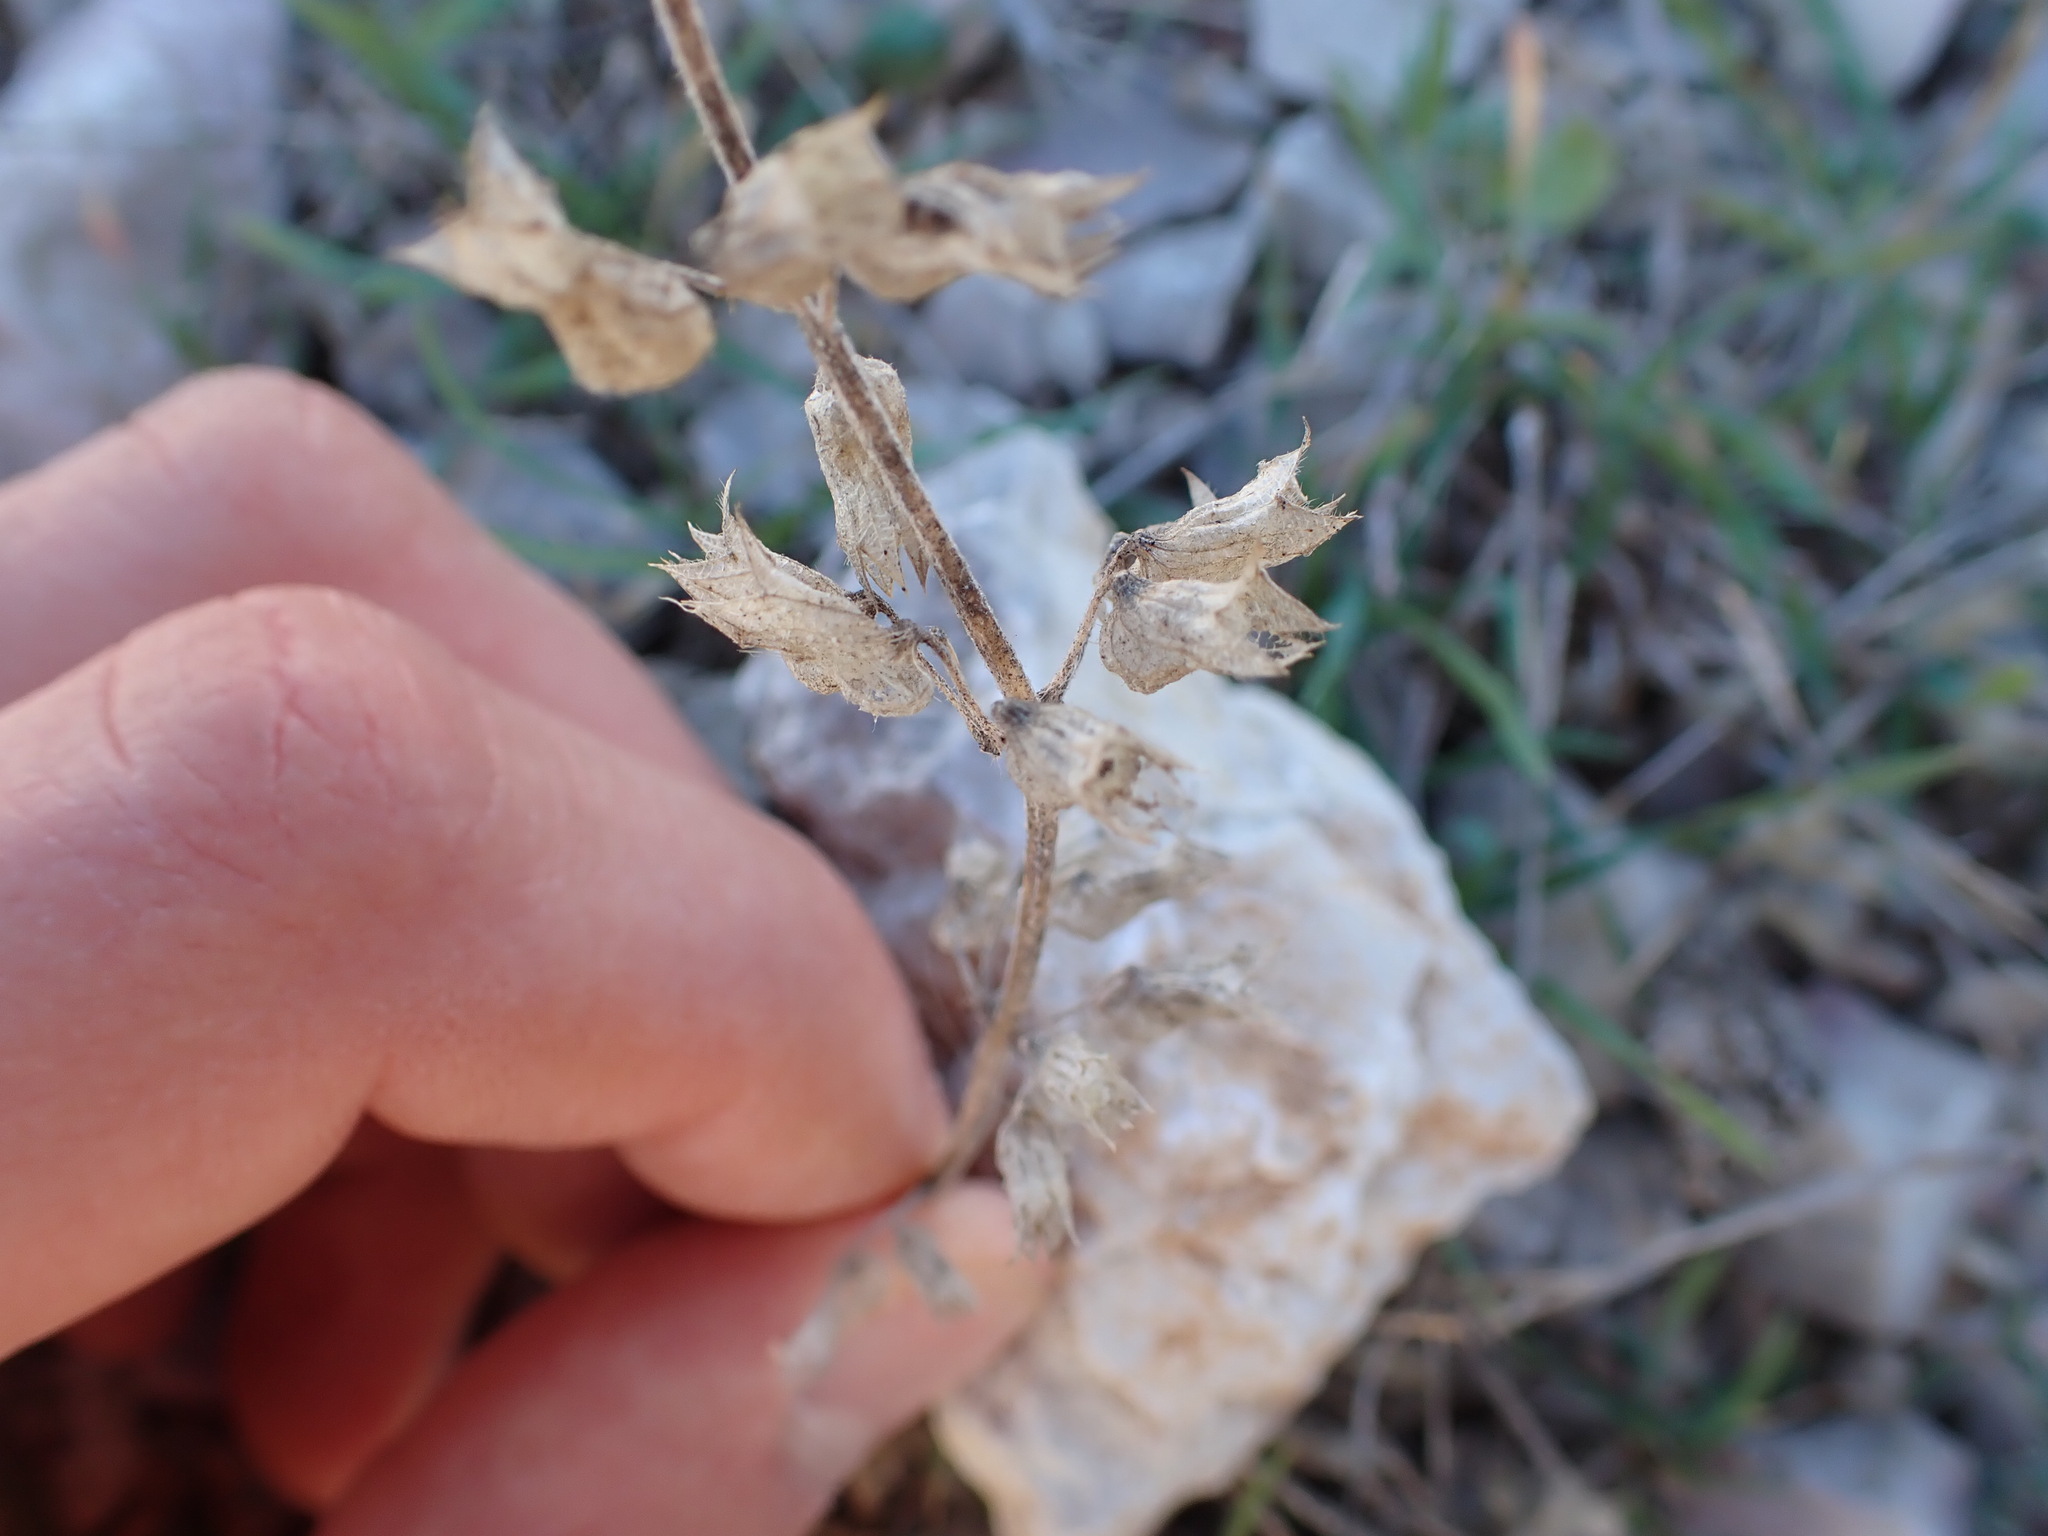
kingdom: Plantae
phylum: Tracheophyta
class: Magnoliopsida
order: Lamiales
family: Lamiaceae
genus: Teucrium
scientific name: Teucrium botrys
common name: Cut-leaved germander
